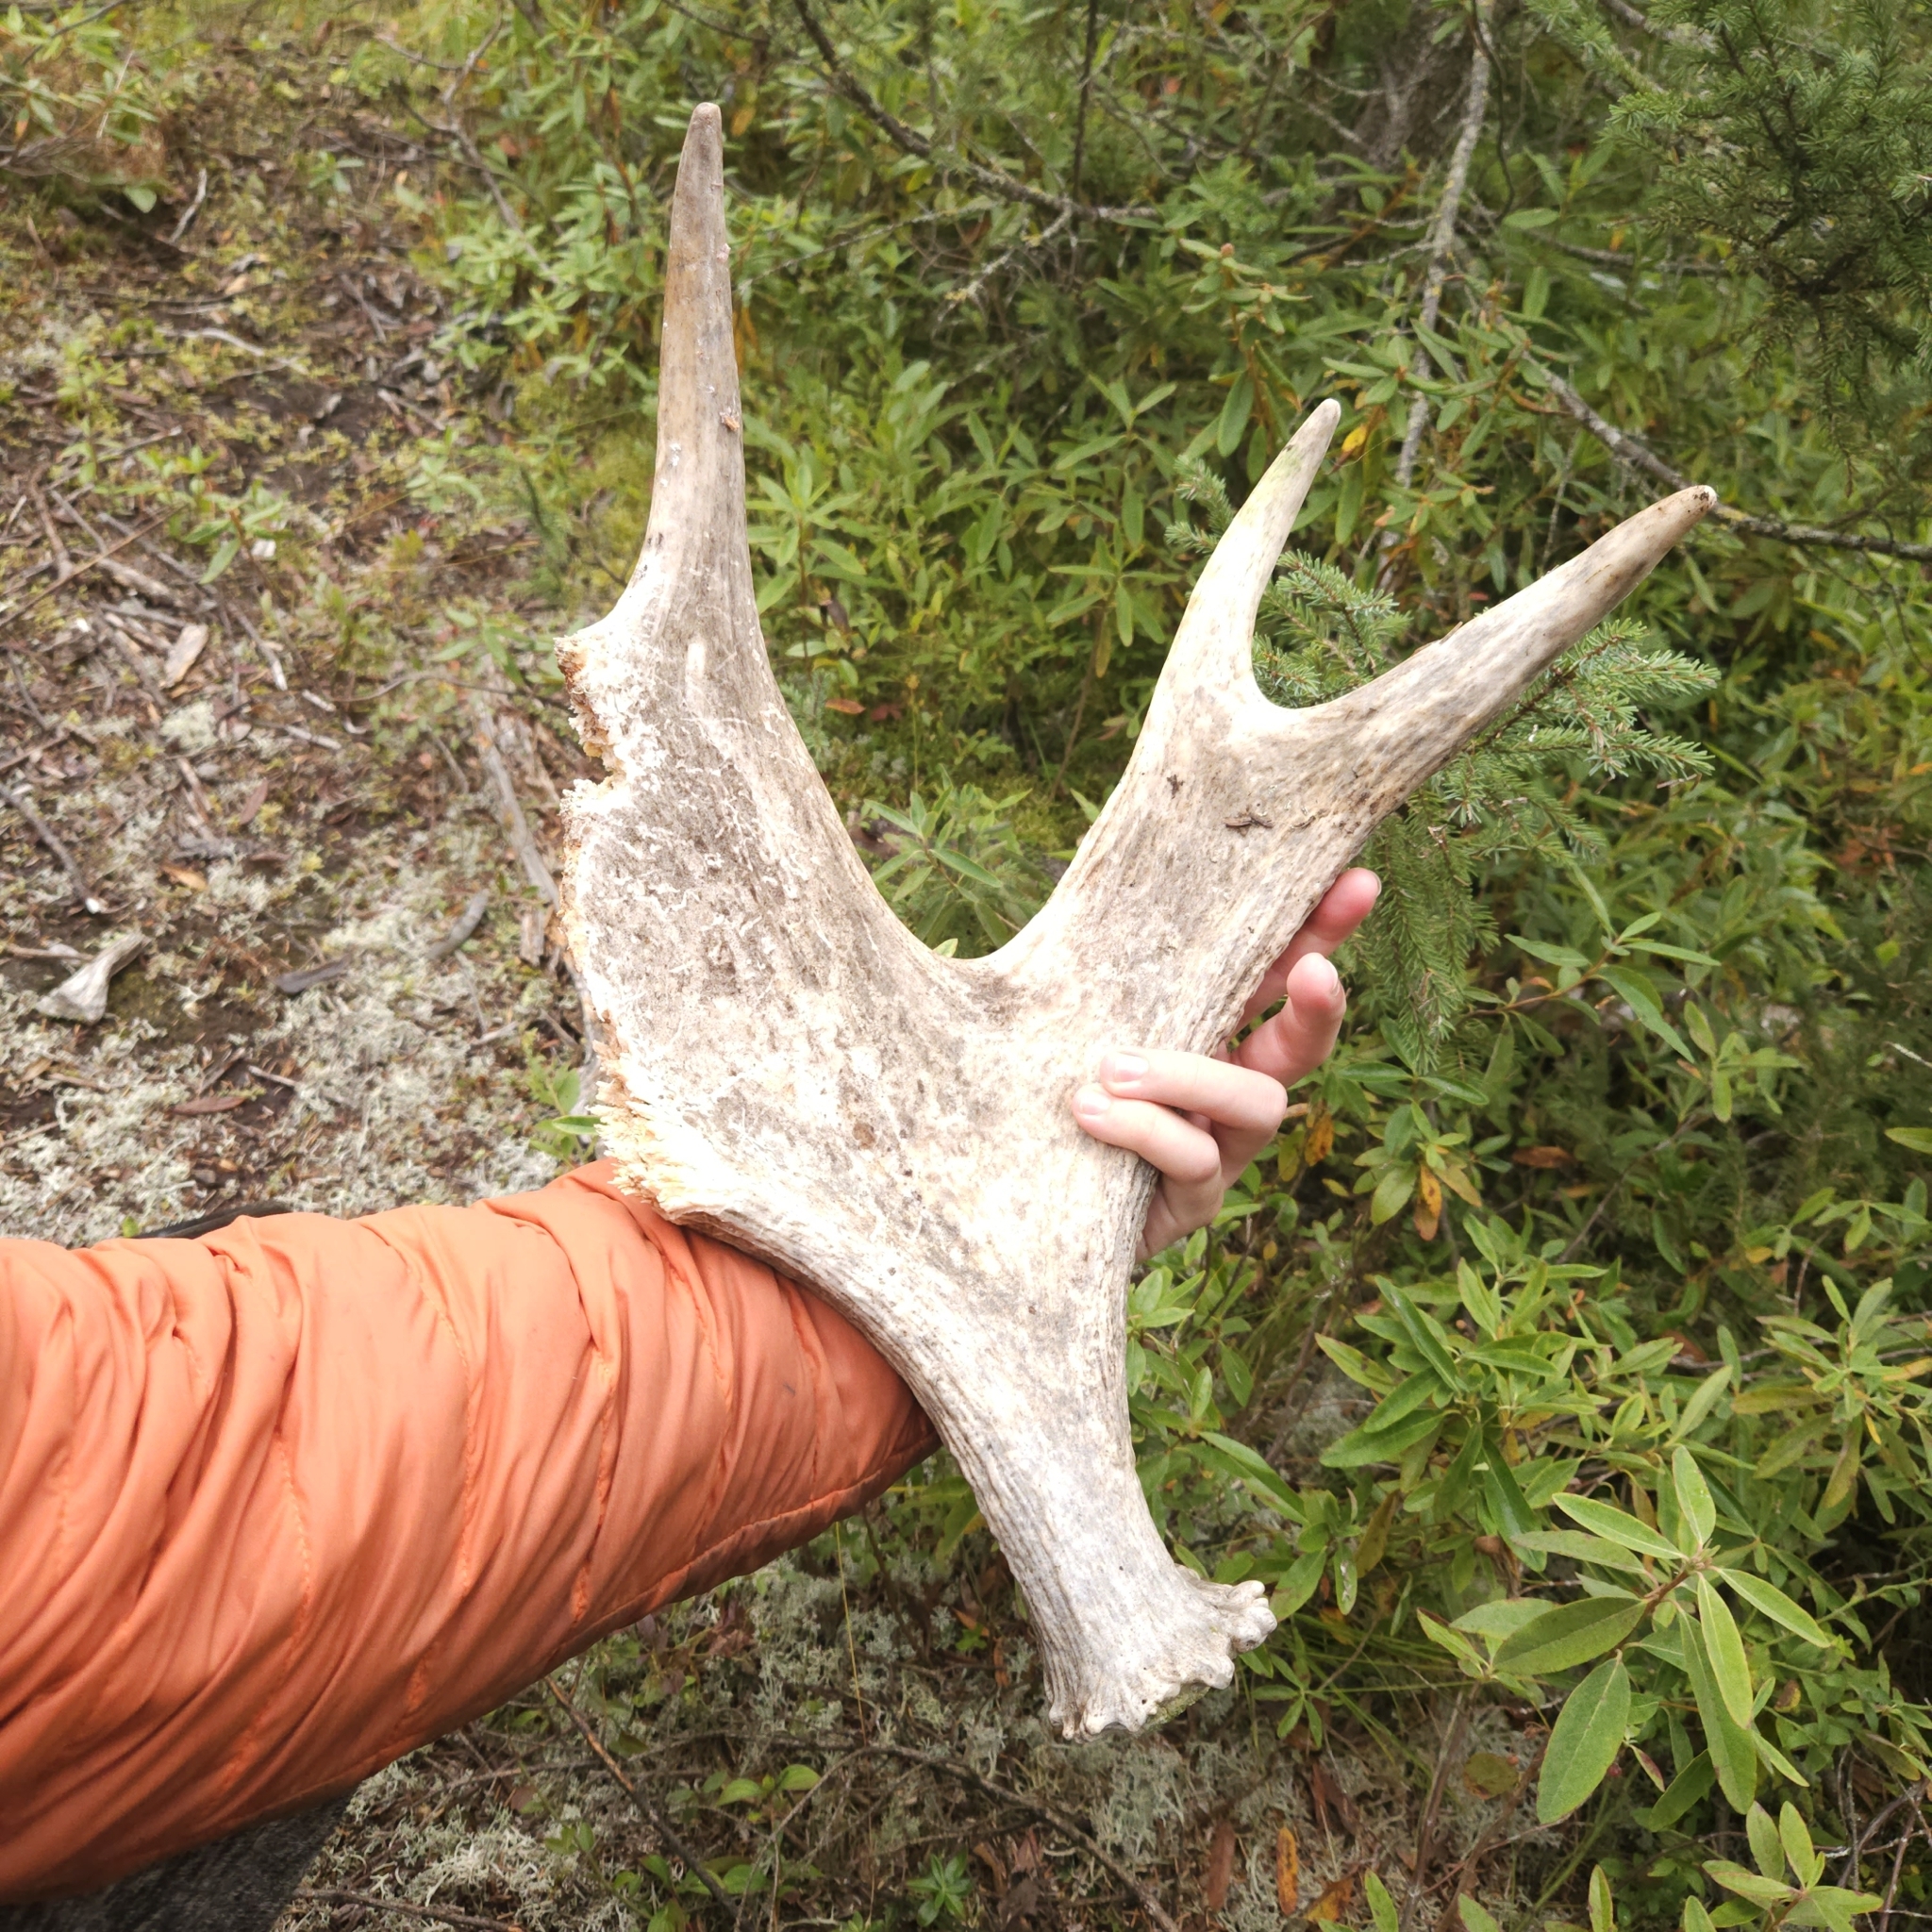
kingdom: Animalia
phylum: Chordata
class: Mammalia
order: Artiodactyla
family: Cervidae
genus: Alces
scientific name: Alces alces
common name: Moose
